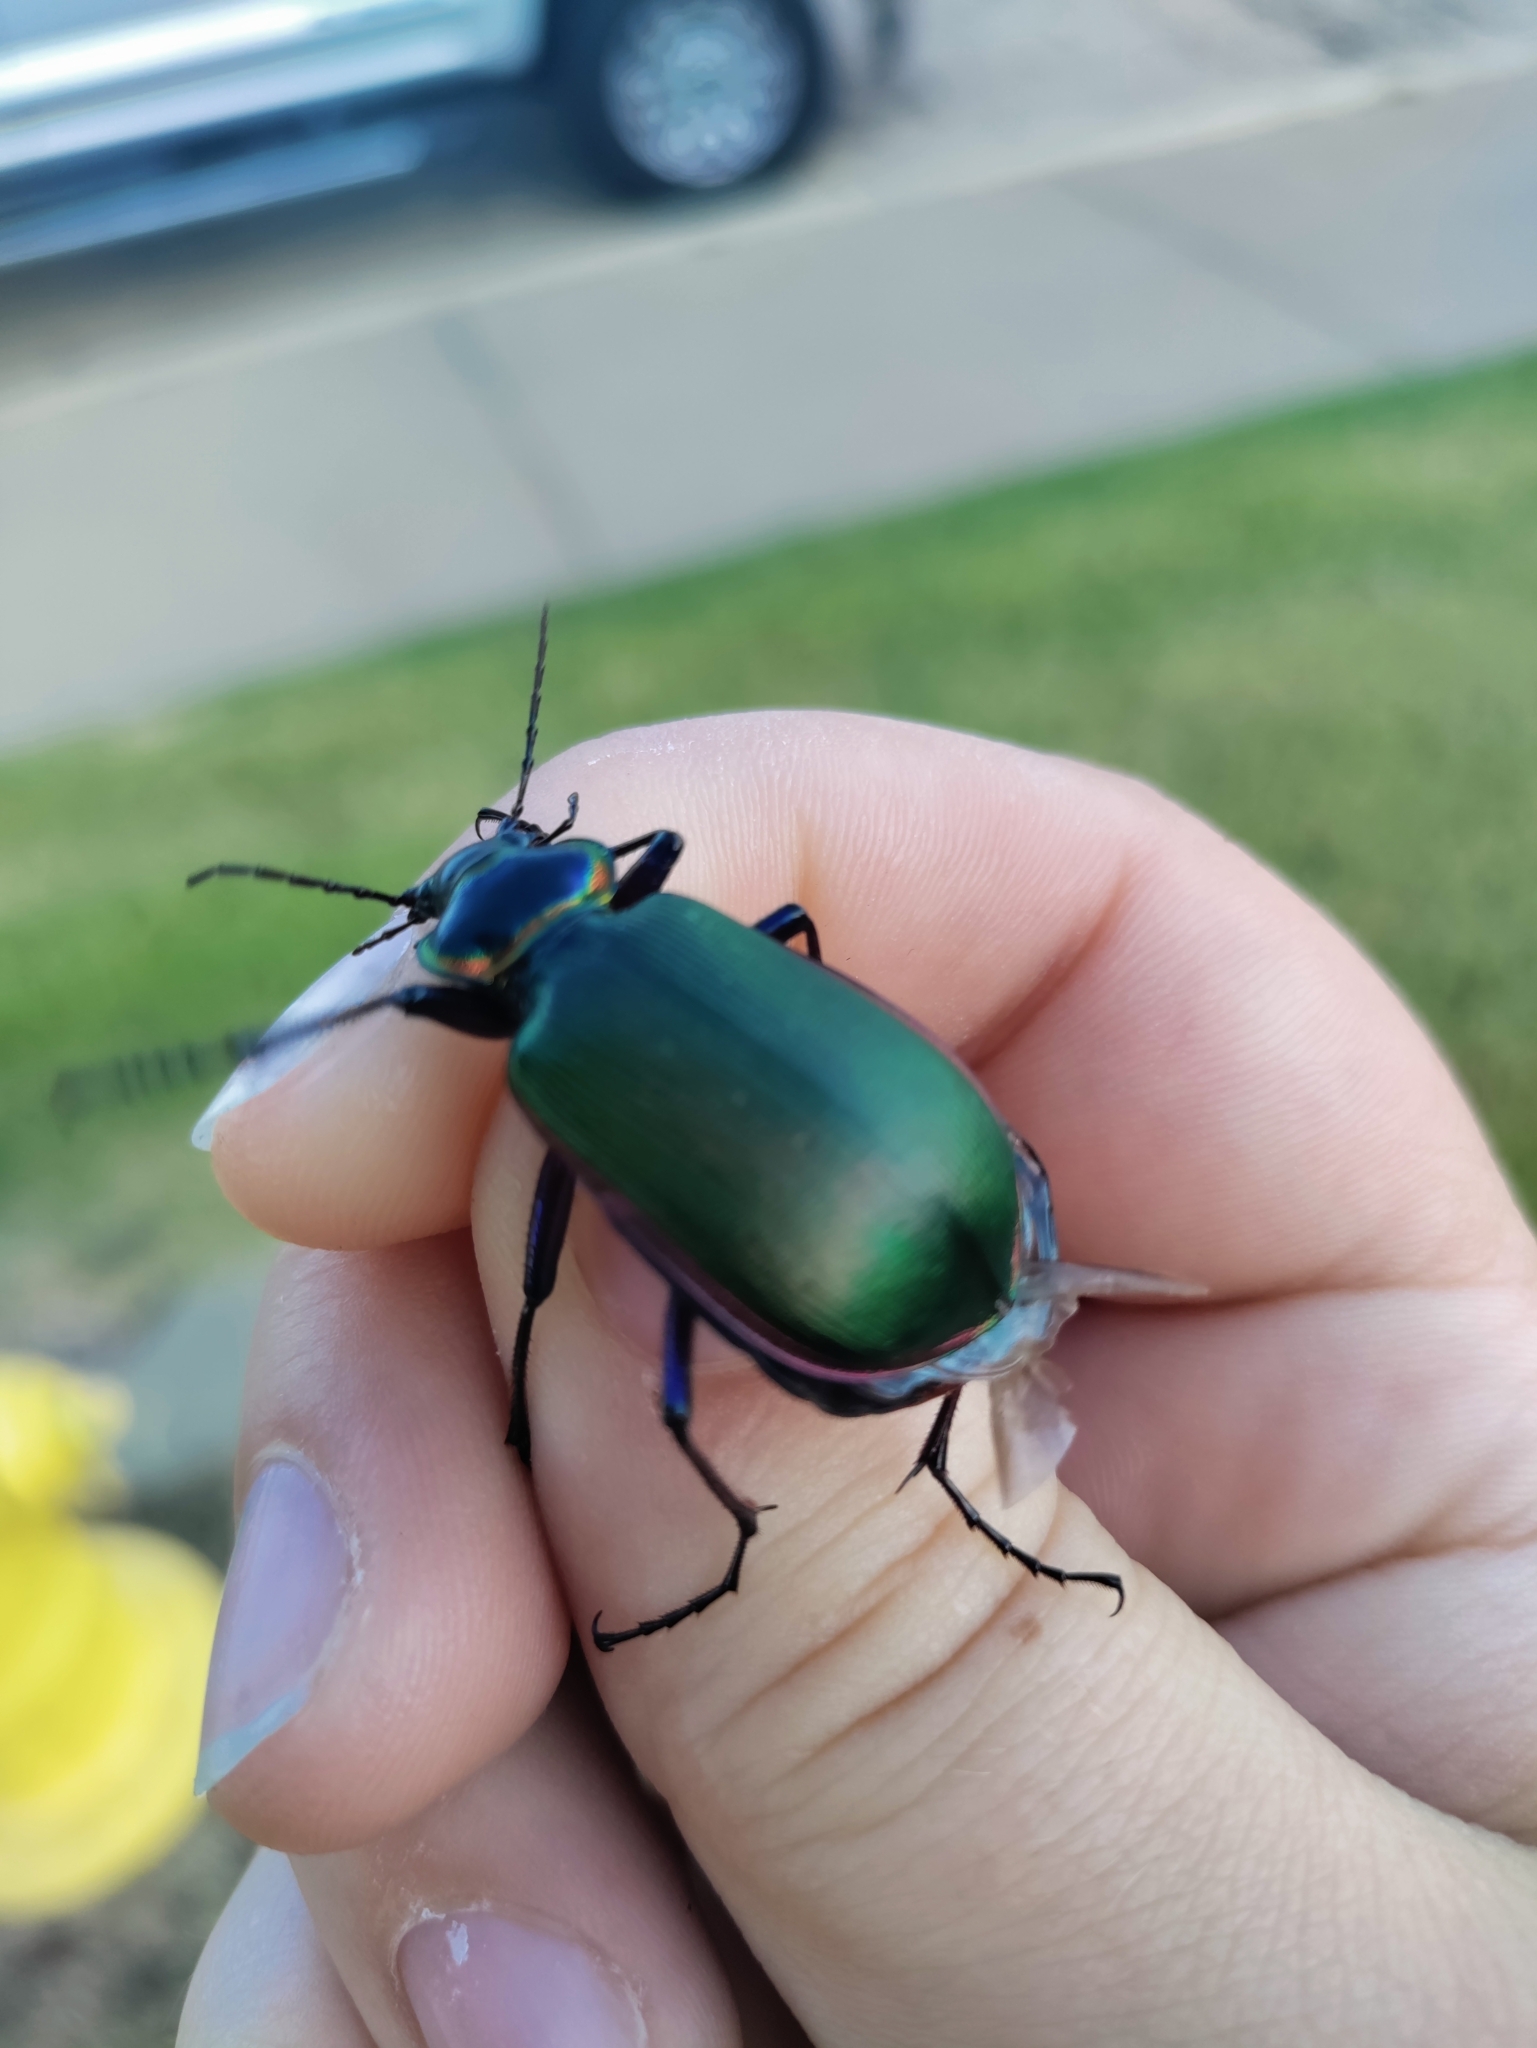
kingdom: Animalia
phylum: Arthropoda
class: Insecta
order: Coleoptera
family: Carabidae
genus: Calosoma
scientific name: Calosoma scrutator
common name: Fiery searcher beetle
